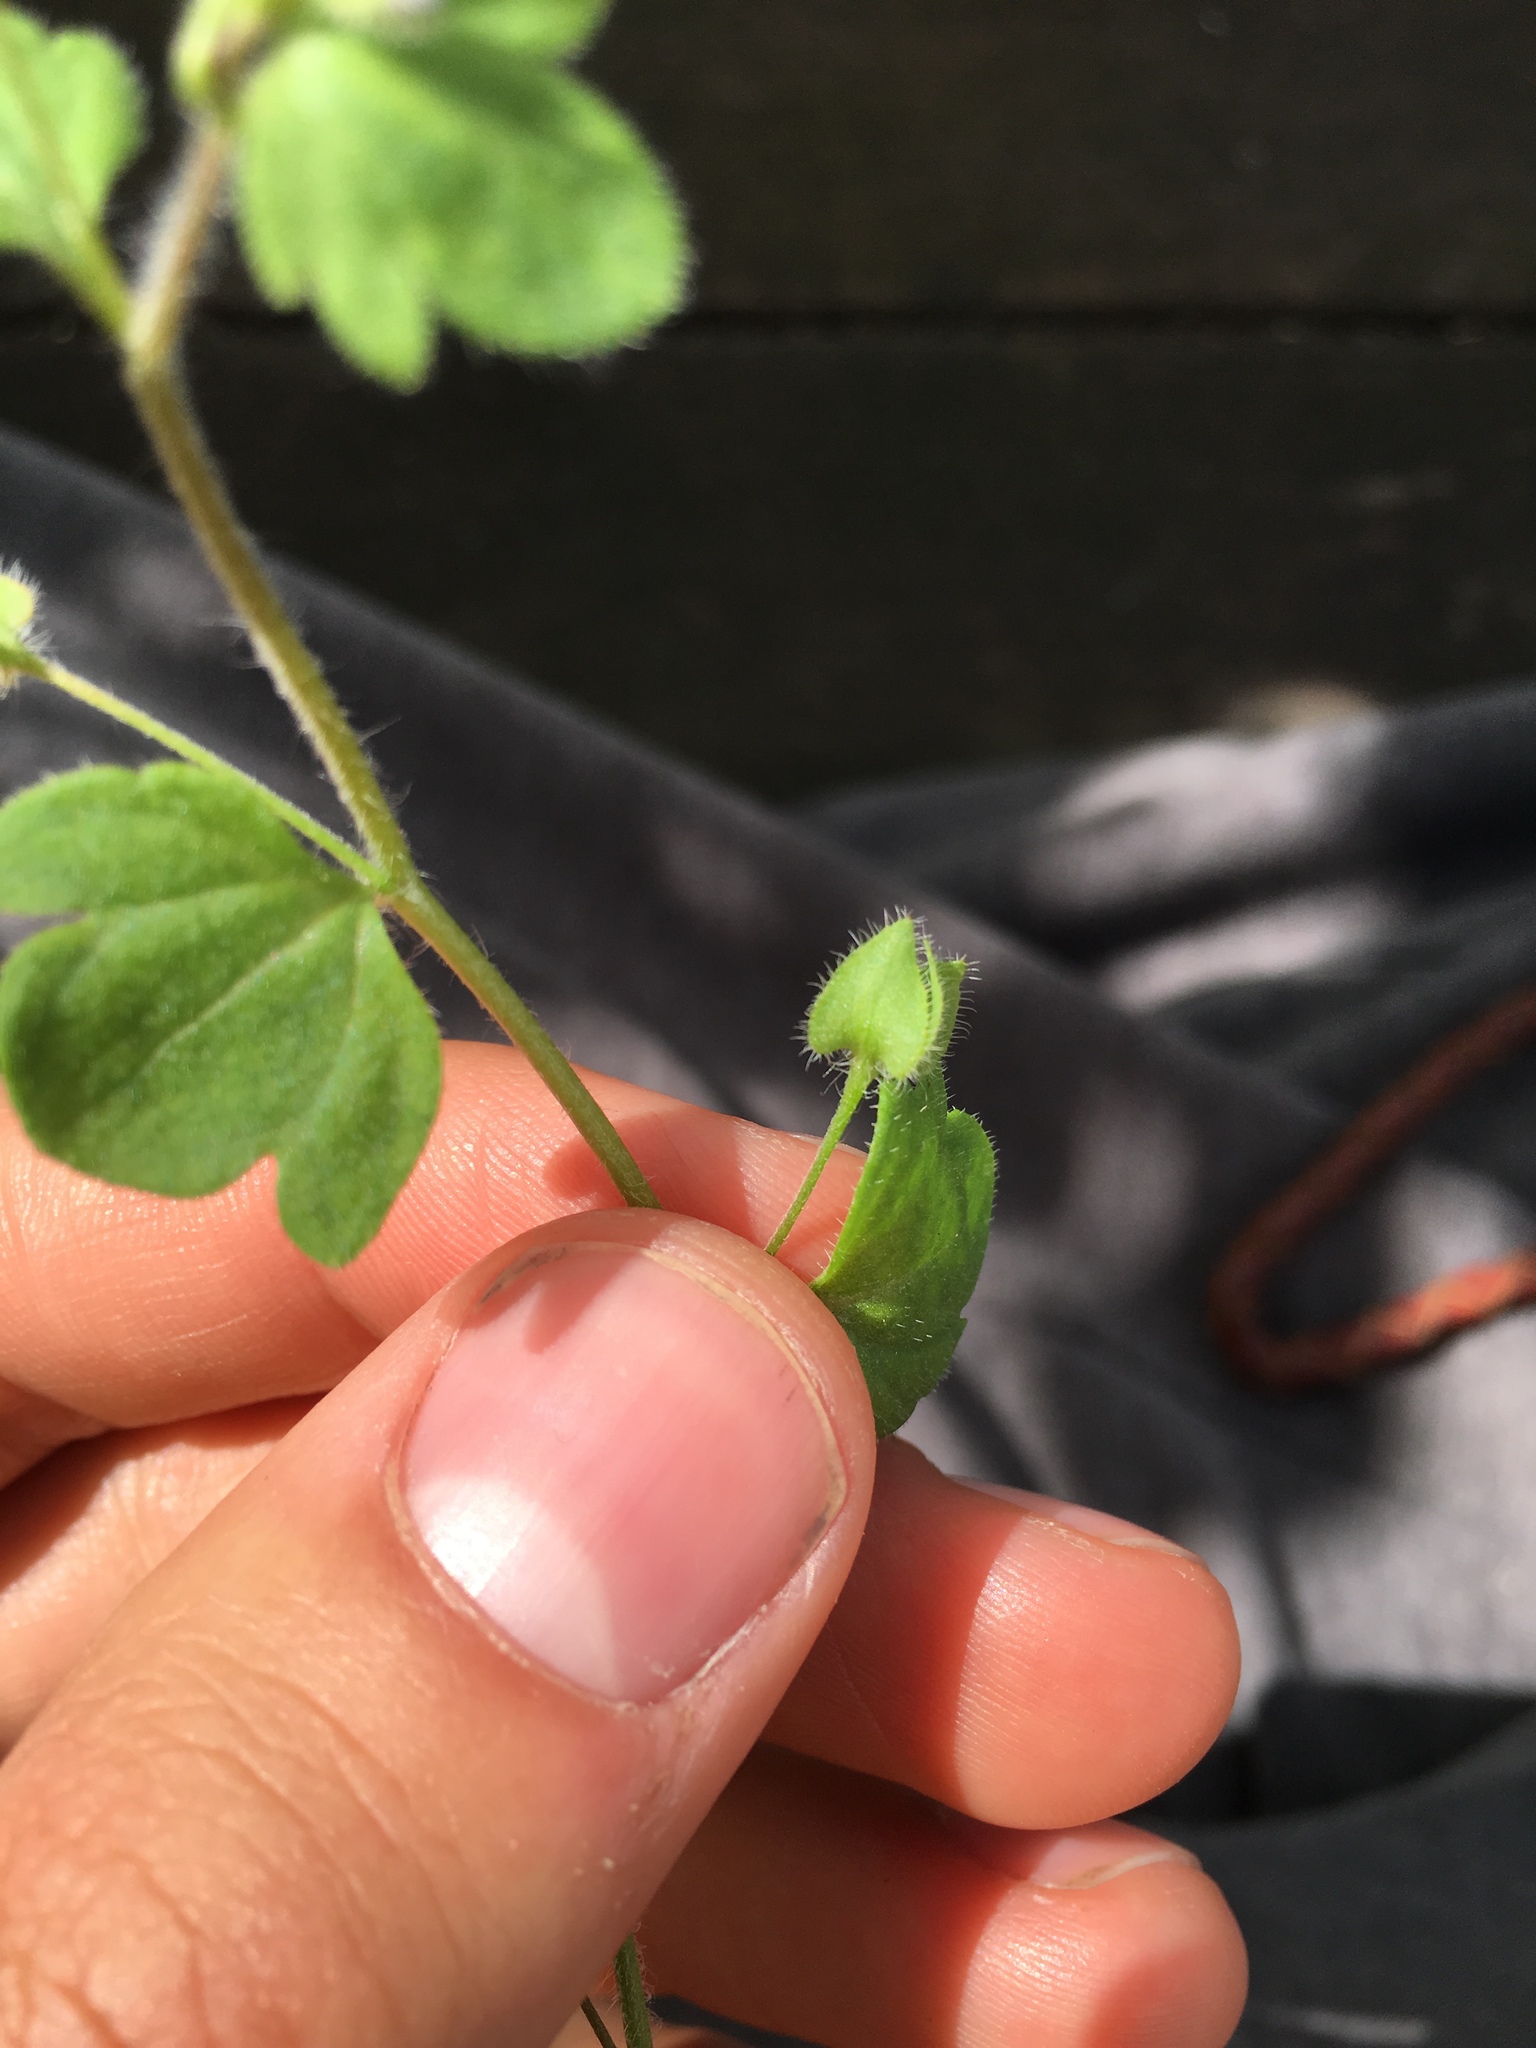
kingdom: Plantae
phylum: Tracheophyta
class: Magnoliopsida
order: Lamiales
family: Plantaginaceae
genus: Veronica
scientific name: Veronica hederifolia
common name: Ivy-leaved speedwell
